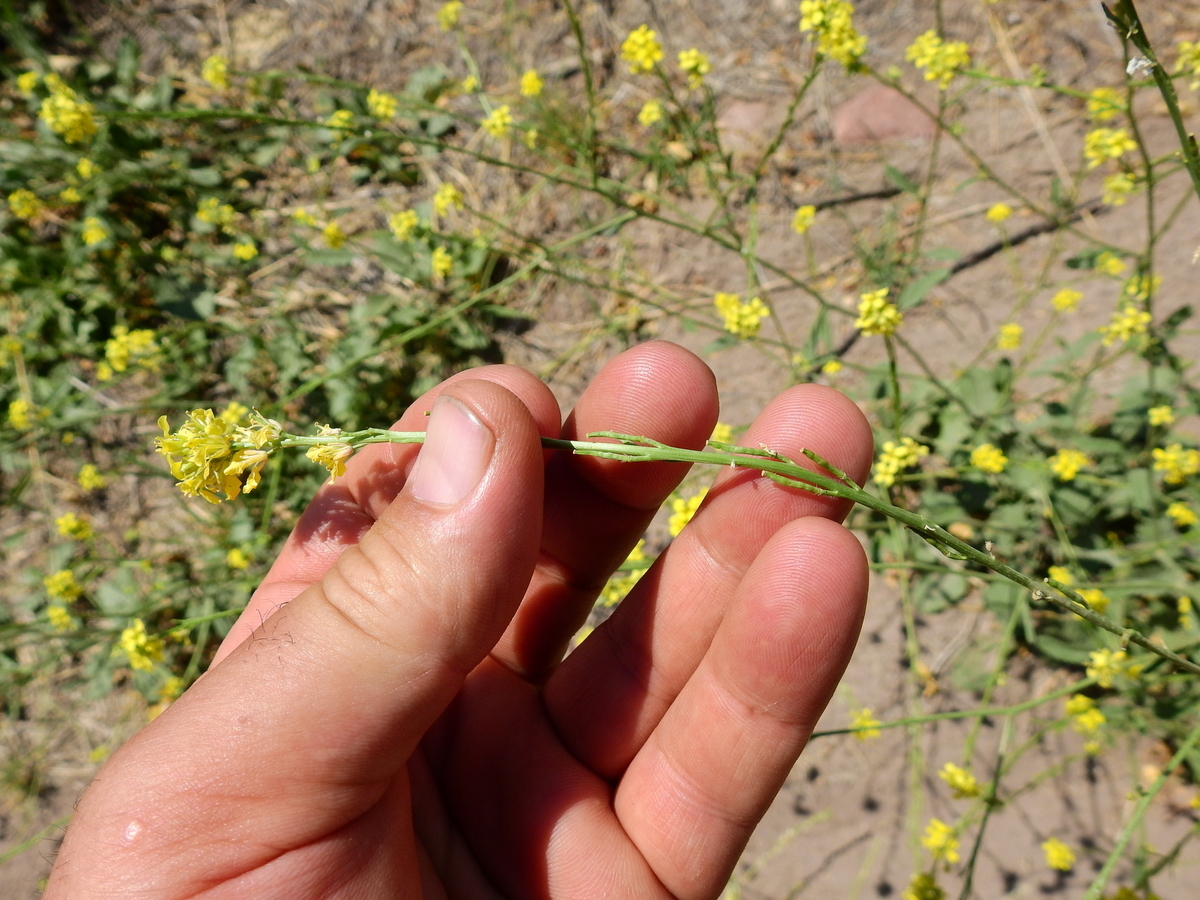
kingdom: Plantae
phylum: Tracheophyta
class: Magnoliopsida
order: Brassicales
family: Brassicaceae
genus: Hirschfeldia
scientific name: Hirschfeldia incana
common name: Hoary mustard
